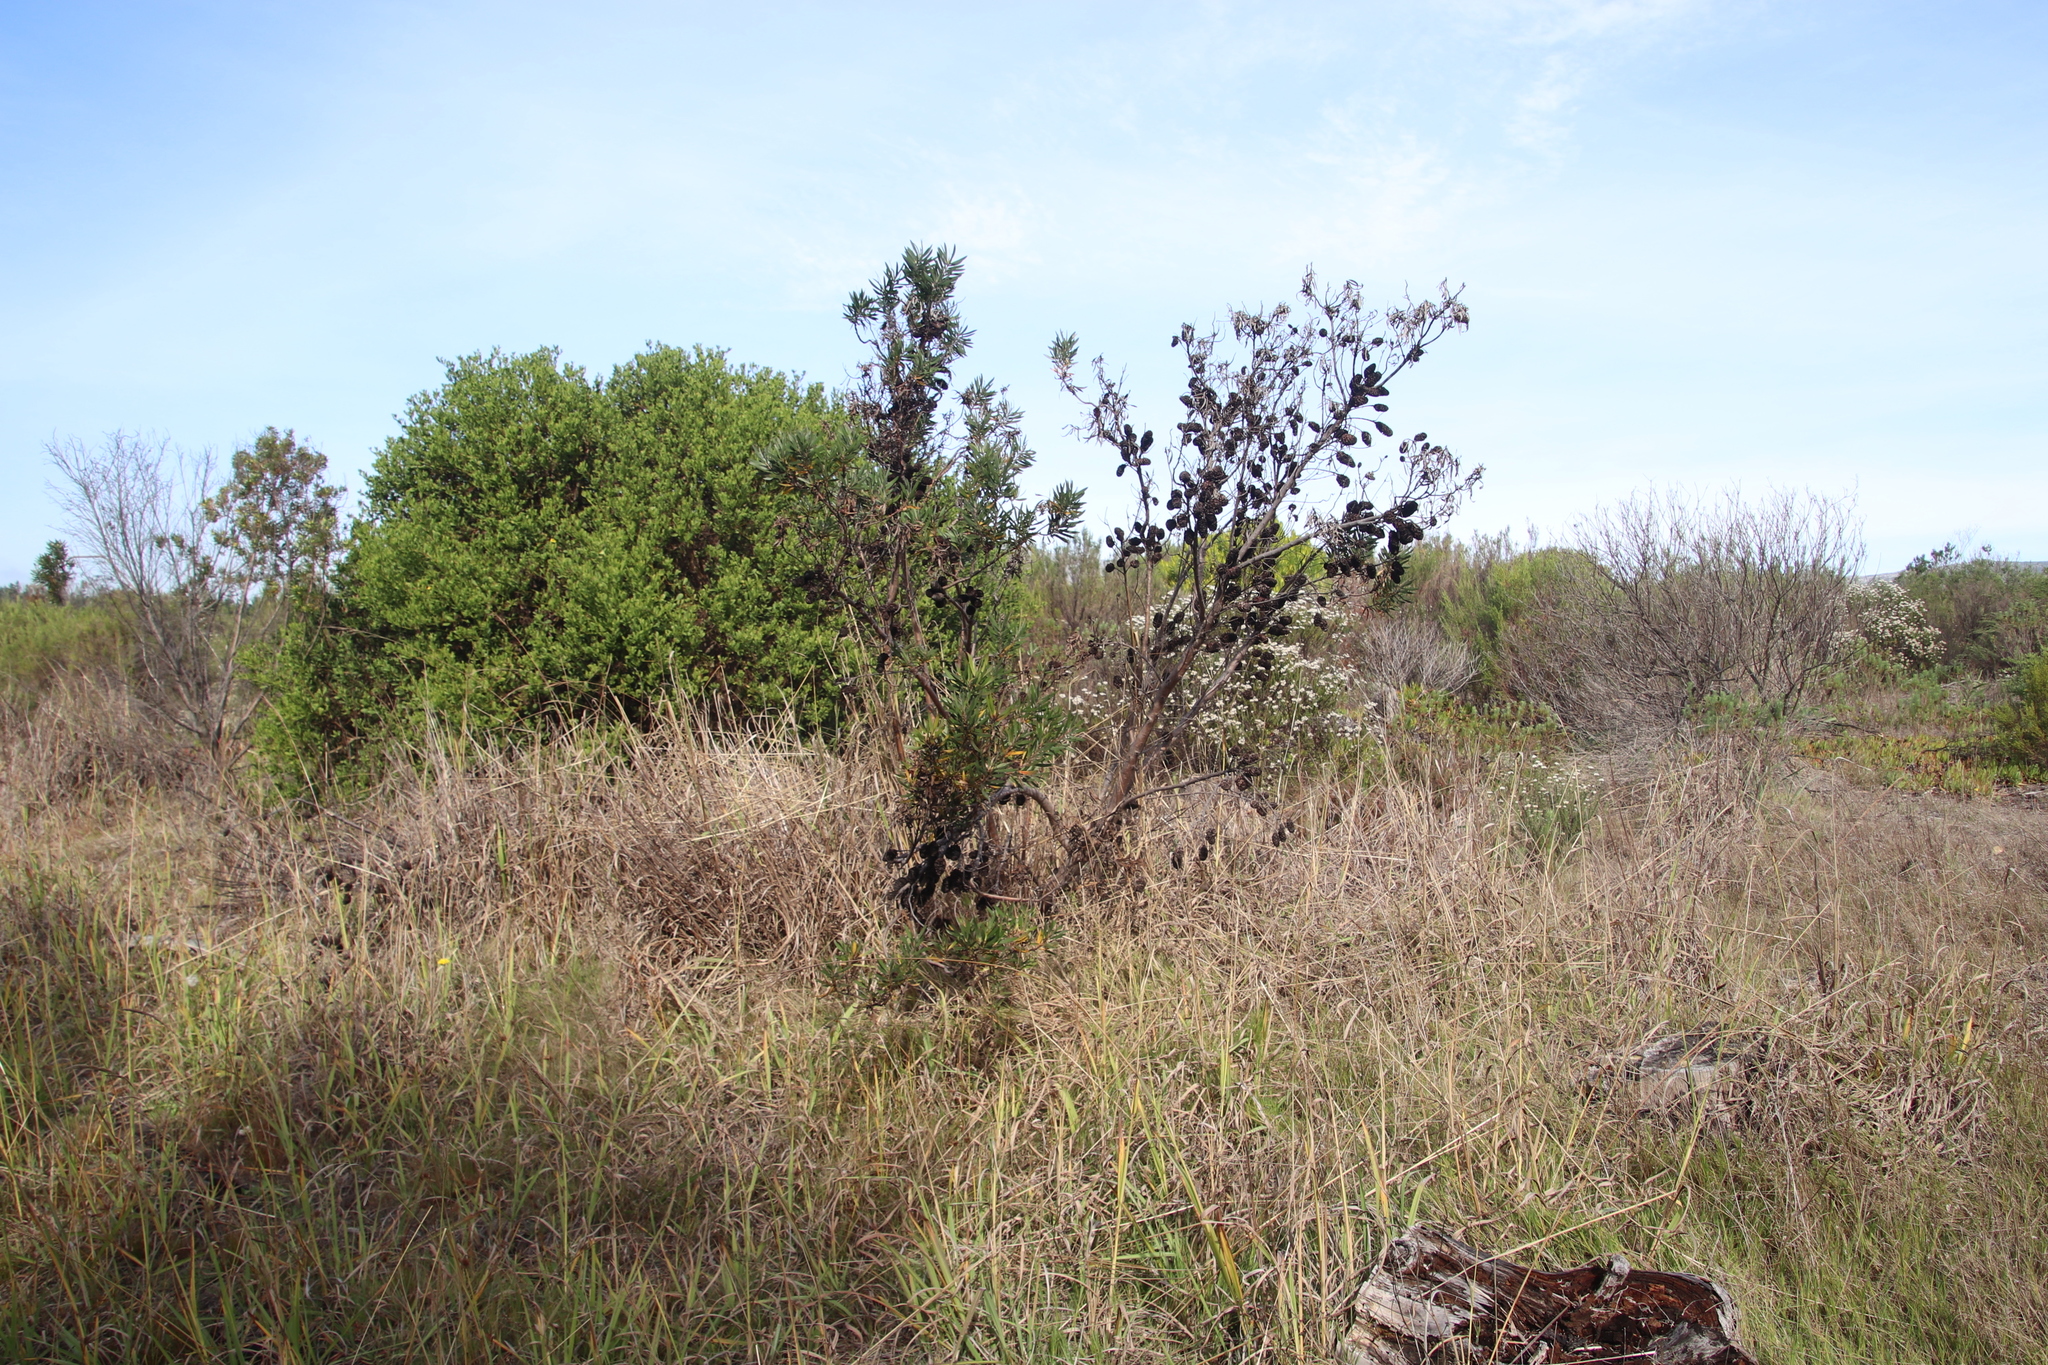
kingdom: Plantae
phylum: Tracheophyta
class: Magnoliopsida
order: Proteales
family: Proteaceae
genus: Leucadendron
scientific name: Leucadendron macowanii
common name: Acacia-leaf conebush
